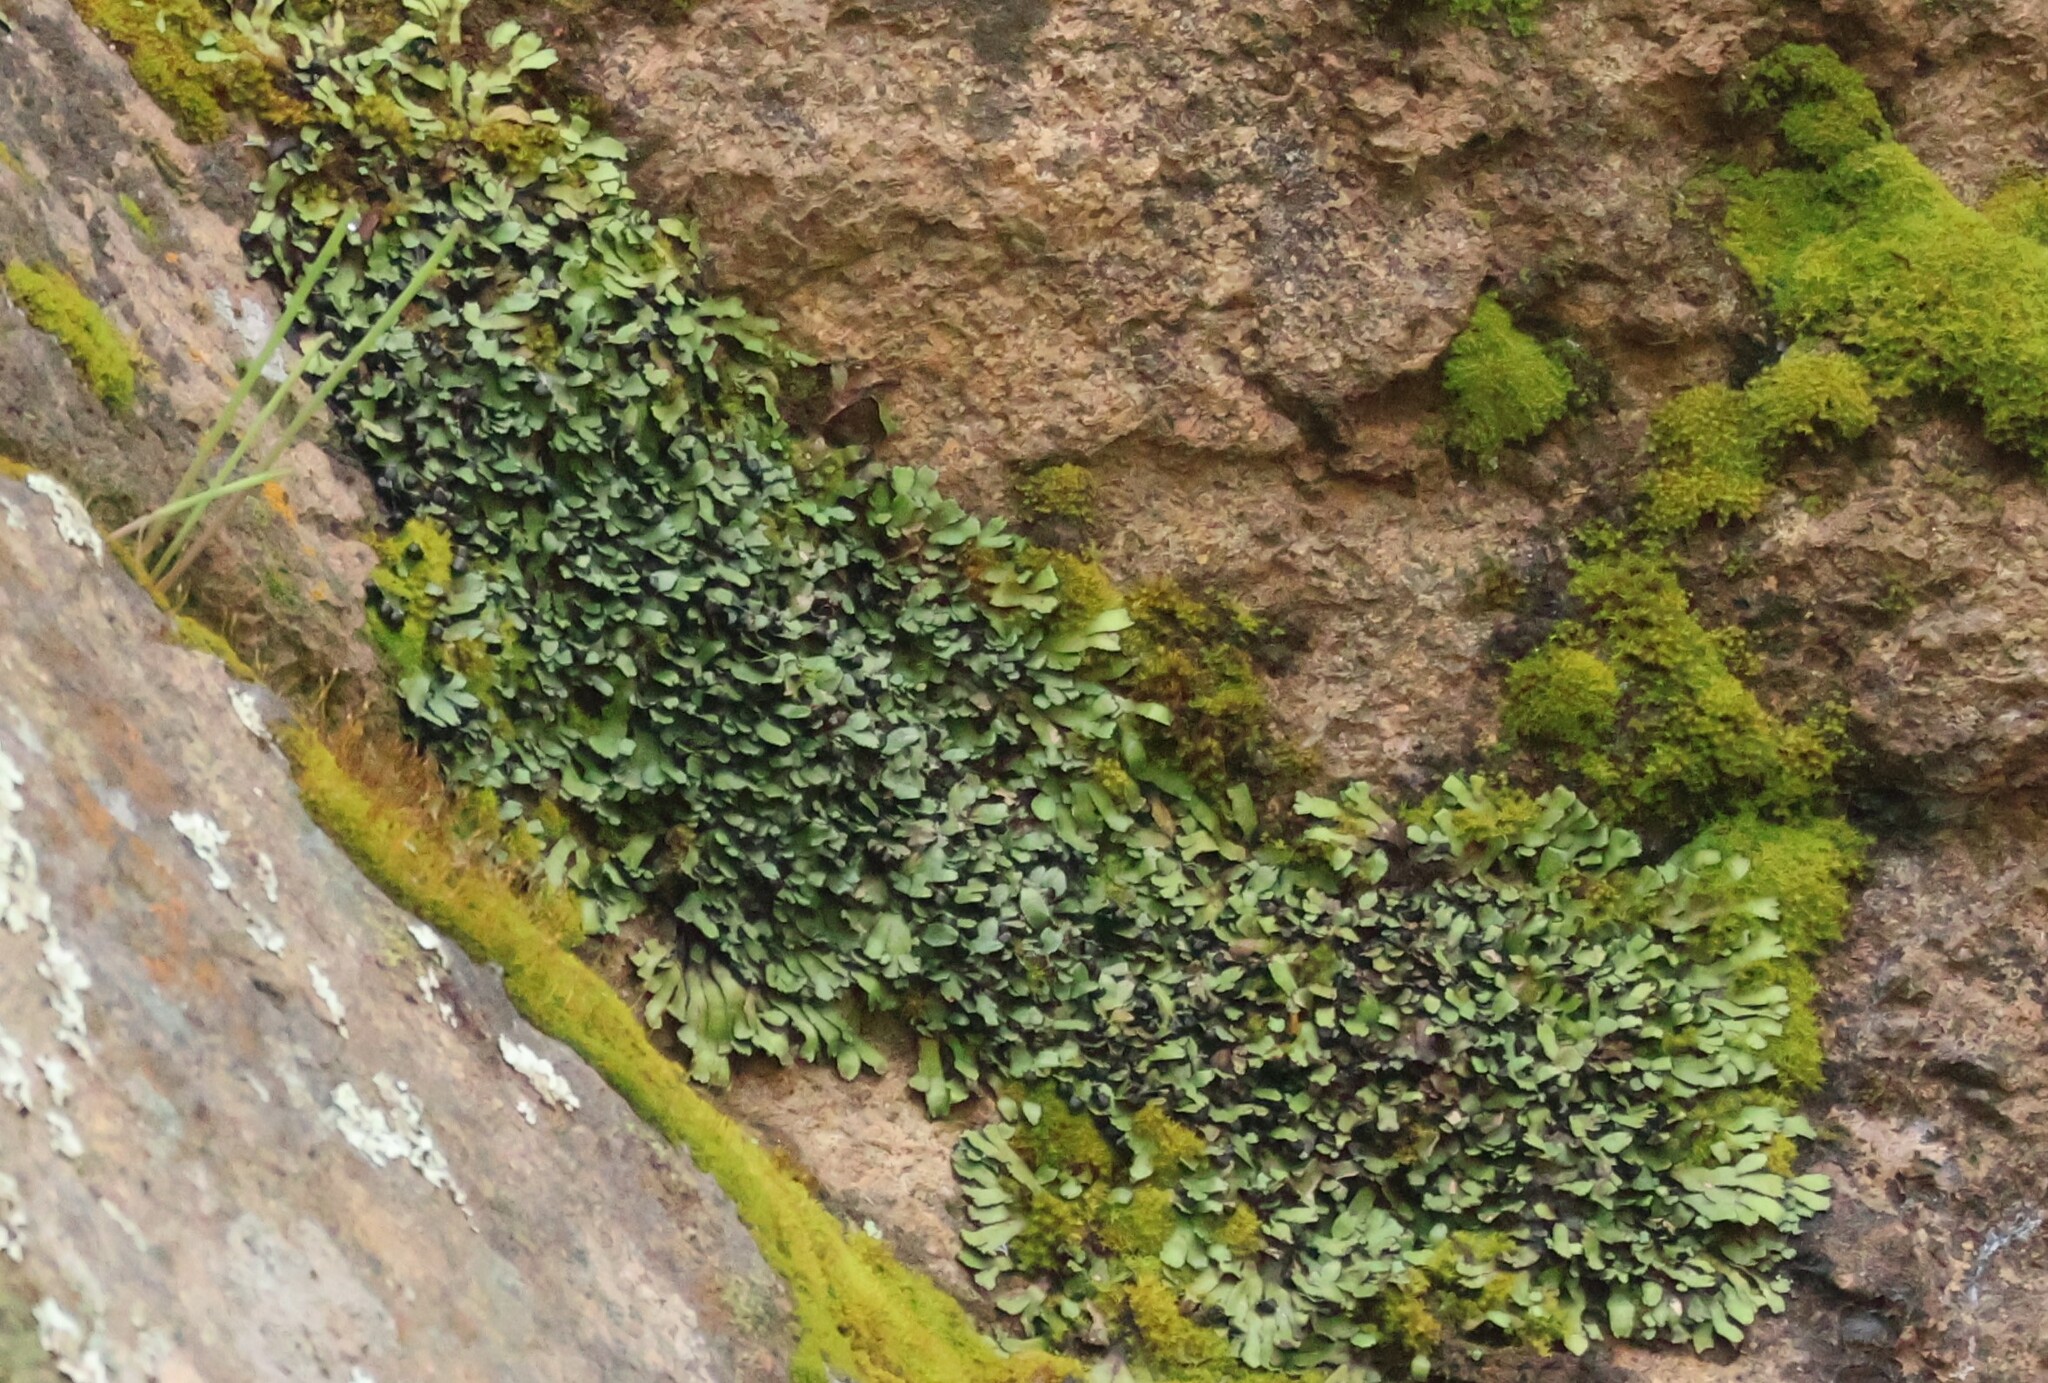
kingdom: Plantae
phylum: Marchantiophyta
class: Marchantiopsida
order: Marchantiales
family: Targioniaceae
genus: Targionia
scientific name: Targionia hypophylla
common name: Orobus-seed liverwort
